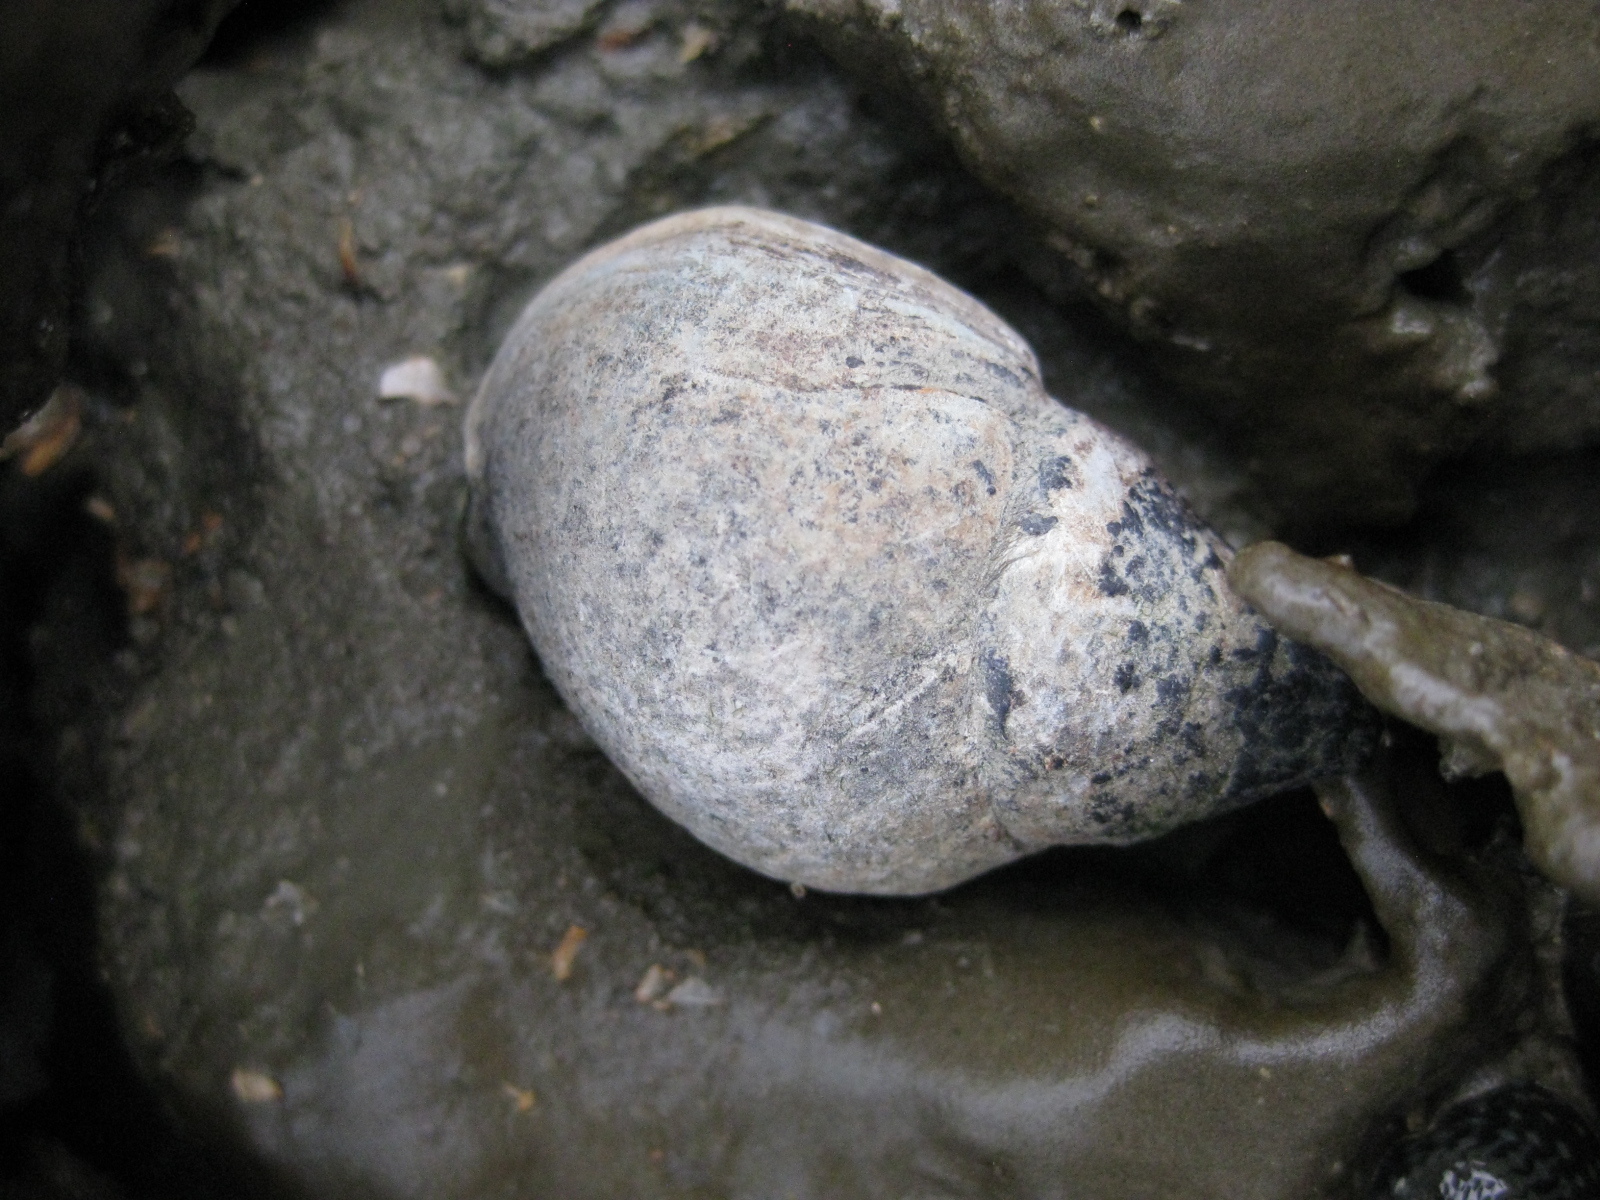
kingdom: Animalia
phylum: Mollusca
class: Gastropoda
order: Neogastropoda
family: Cominellidae
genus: Cominella
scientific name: Cominella adspersa
